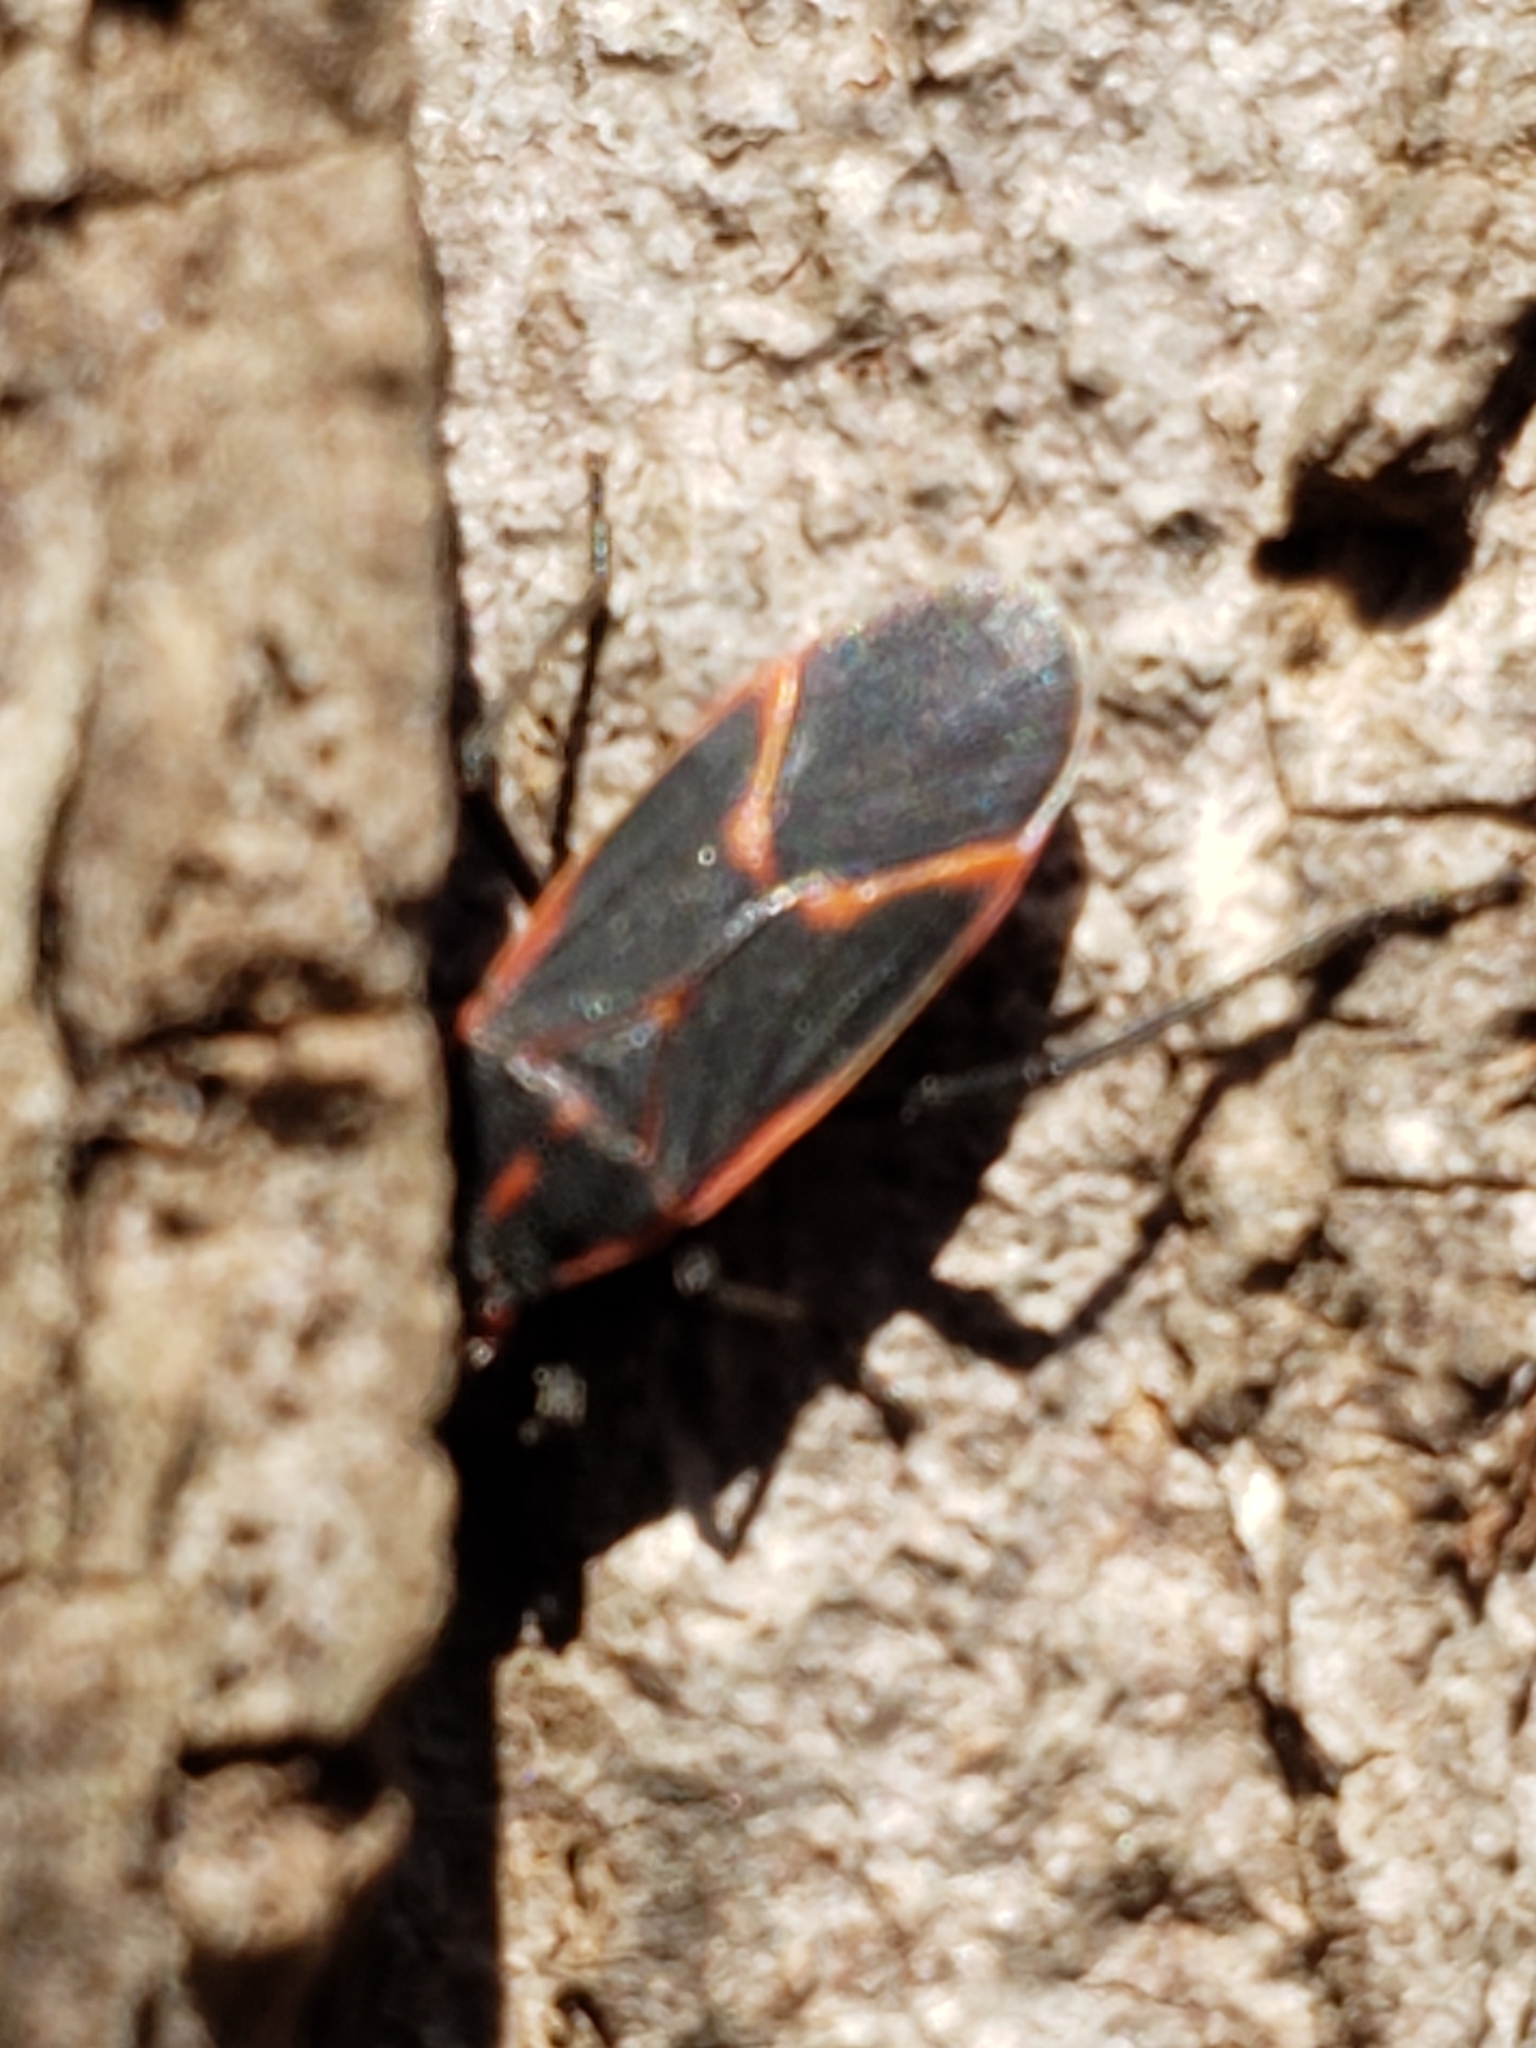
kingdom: Animalia
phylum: Arthropoda
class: Insecta
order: Hemiptera
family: Rhopalidae
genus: Boisea
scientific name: Boisea trivittata
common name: Boxelder bug
